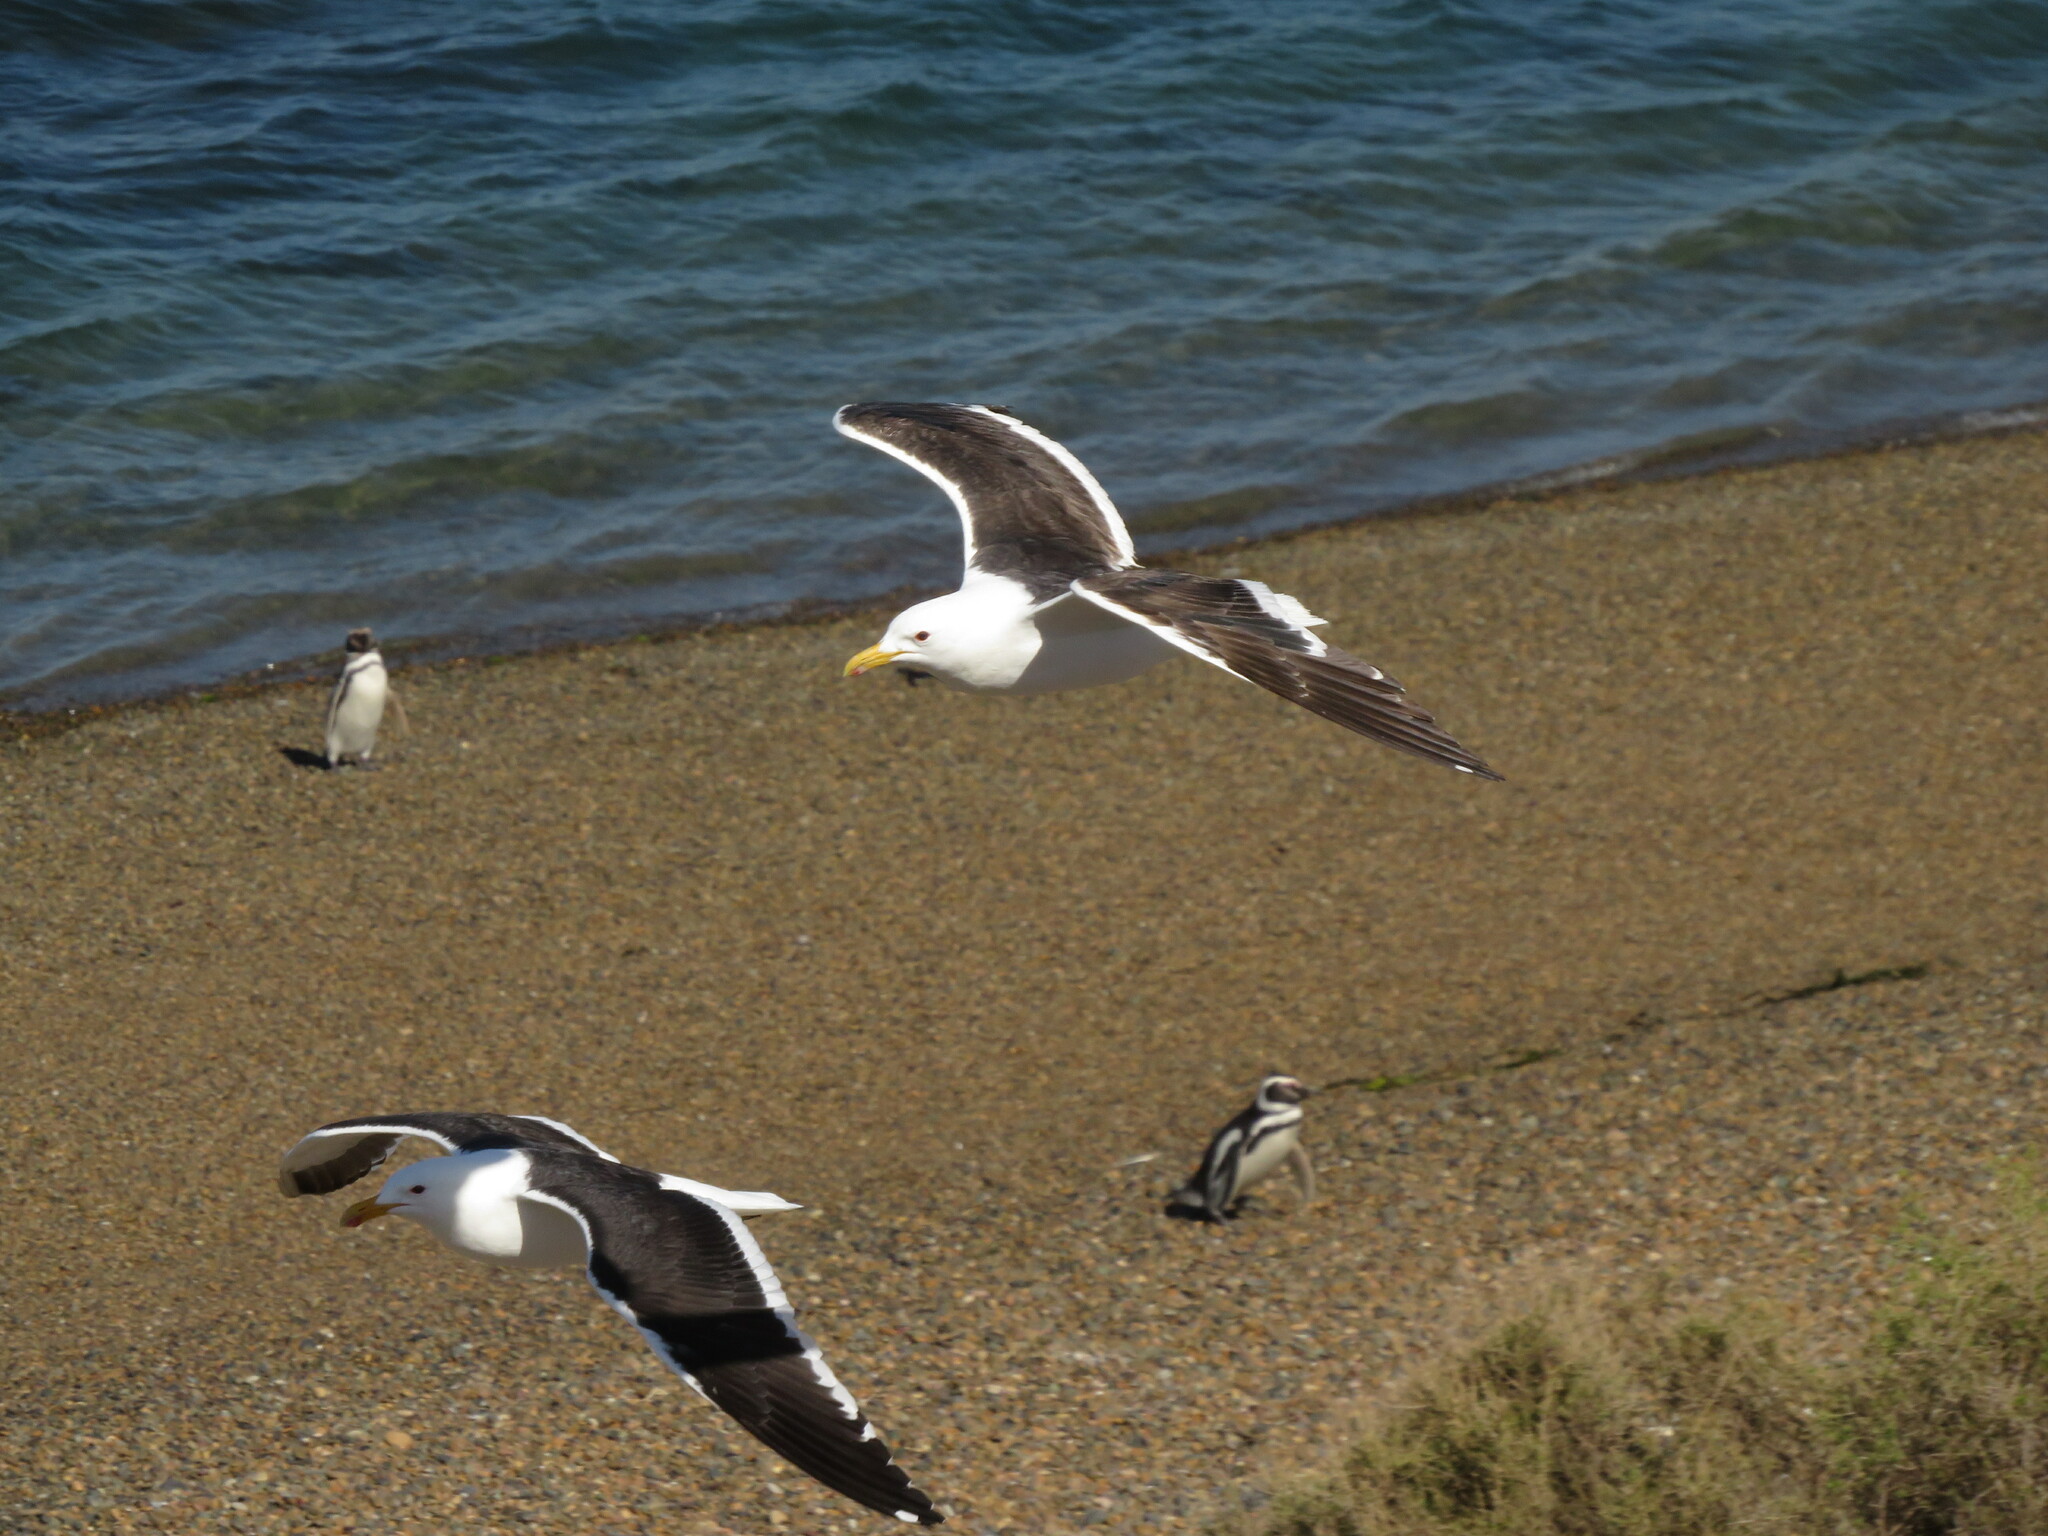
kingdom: Animalia
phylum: Chordata
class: Aves
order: Charadriiformes
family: Laridae
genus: Larus
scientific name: Larus dominicanus
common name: Kelp gull
